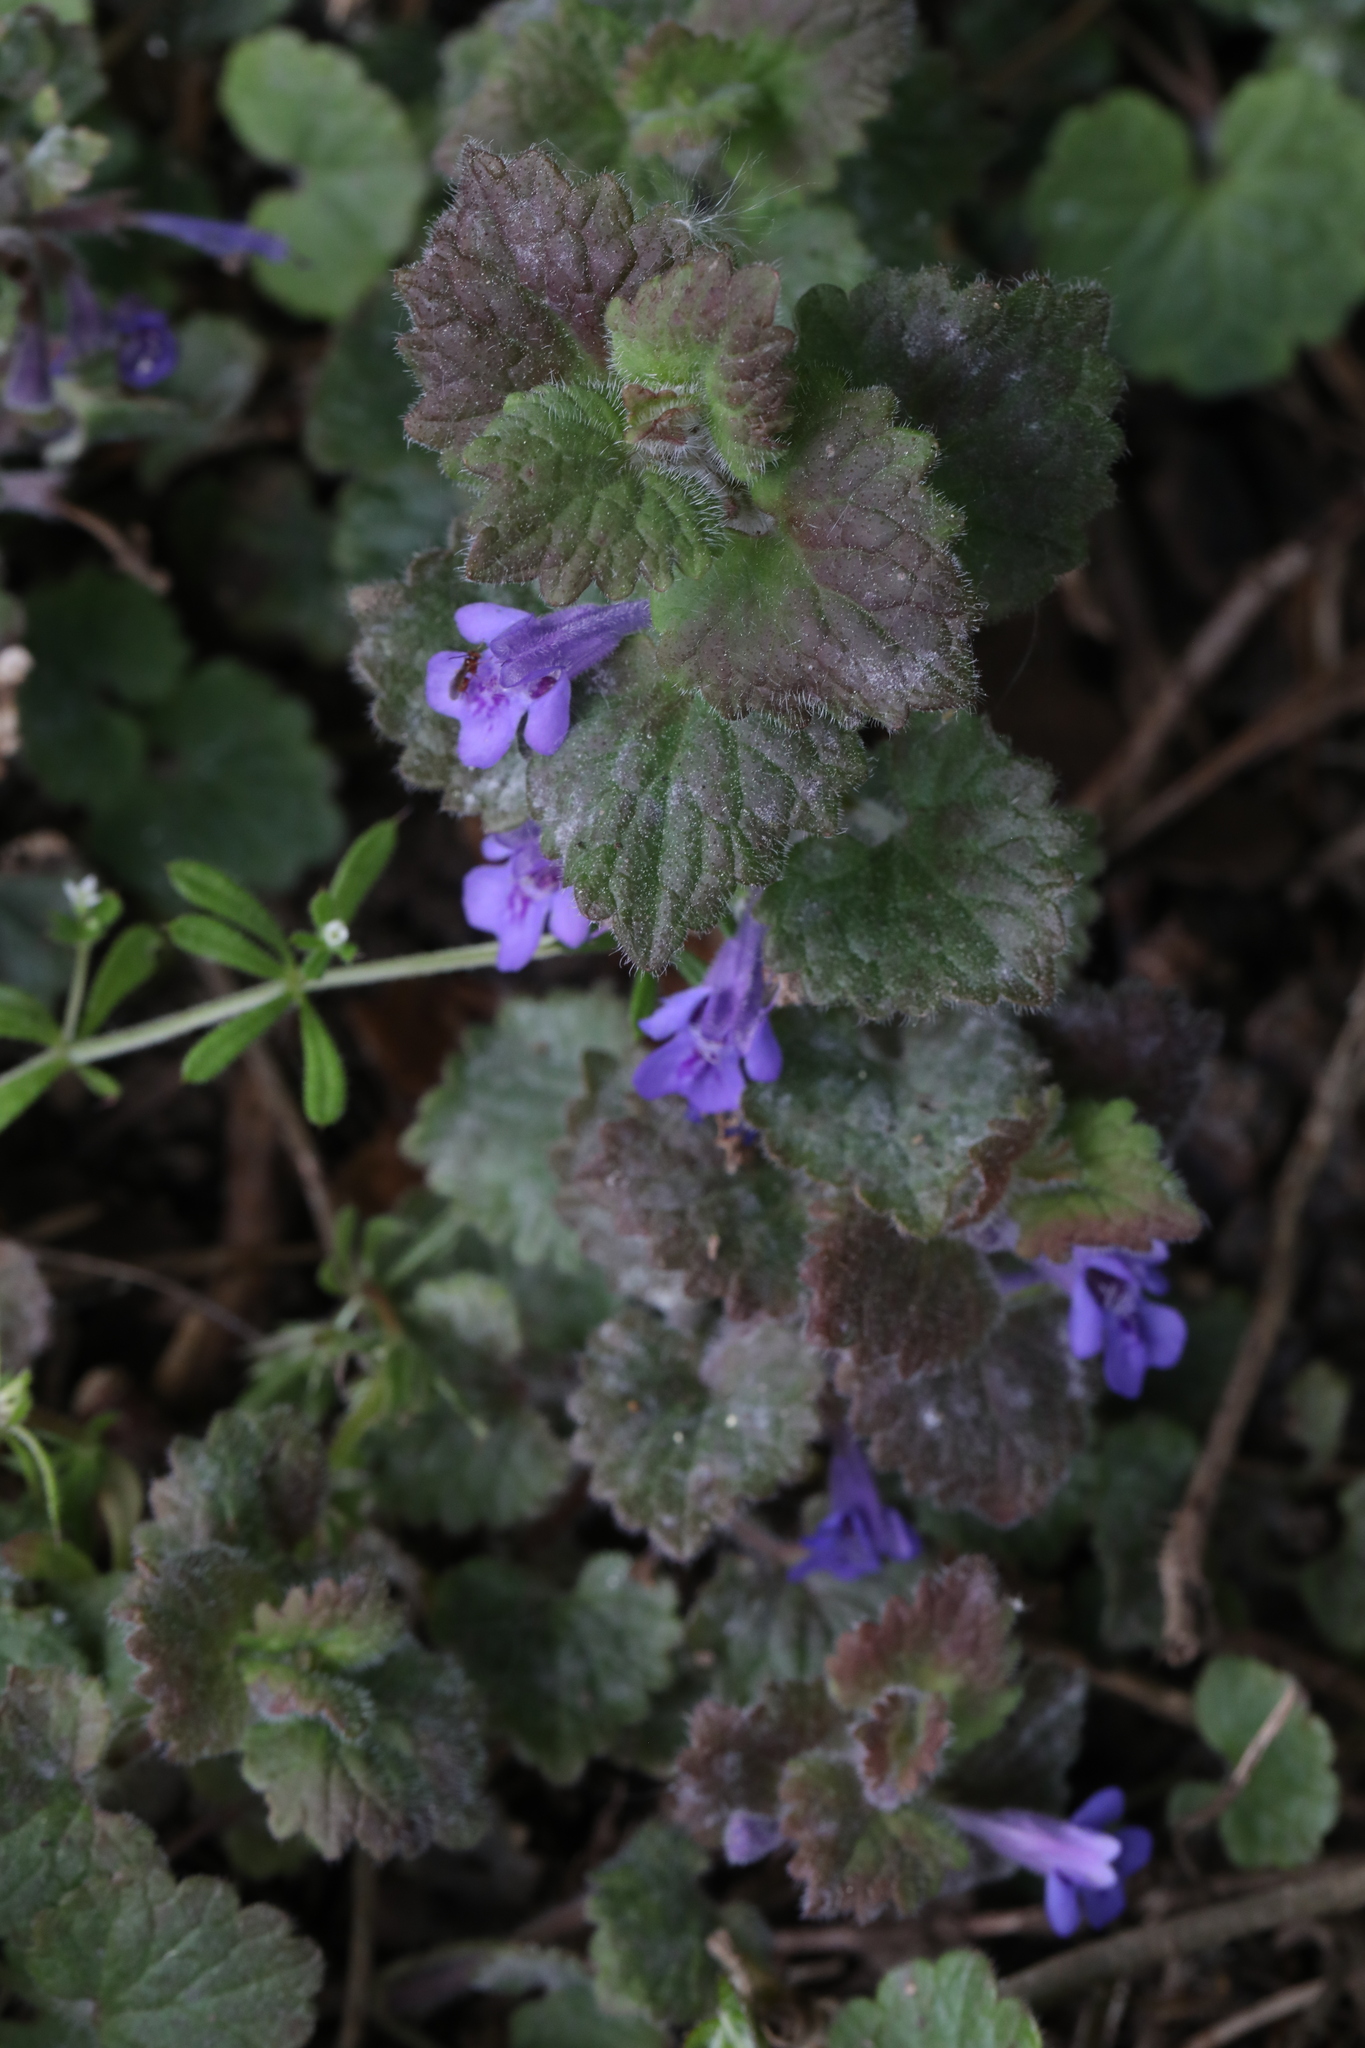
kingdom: Plantae
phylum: Tracheophyta
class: Magnoliopsida
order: Lamiales
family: Lamiaceae
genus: Glechoma
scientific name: Glechoma hederacea
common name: Ground ivy
